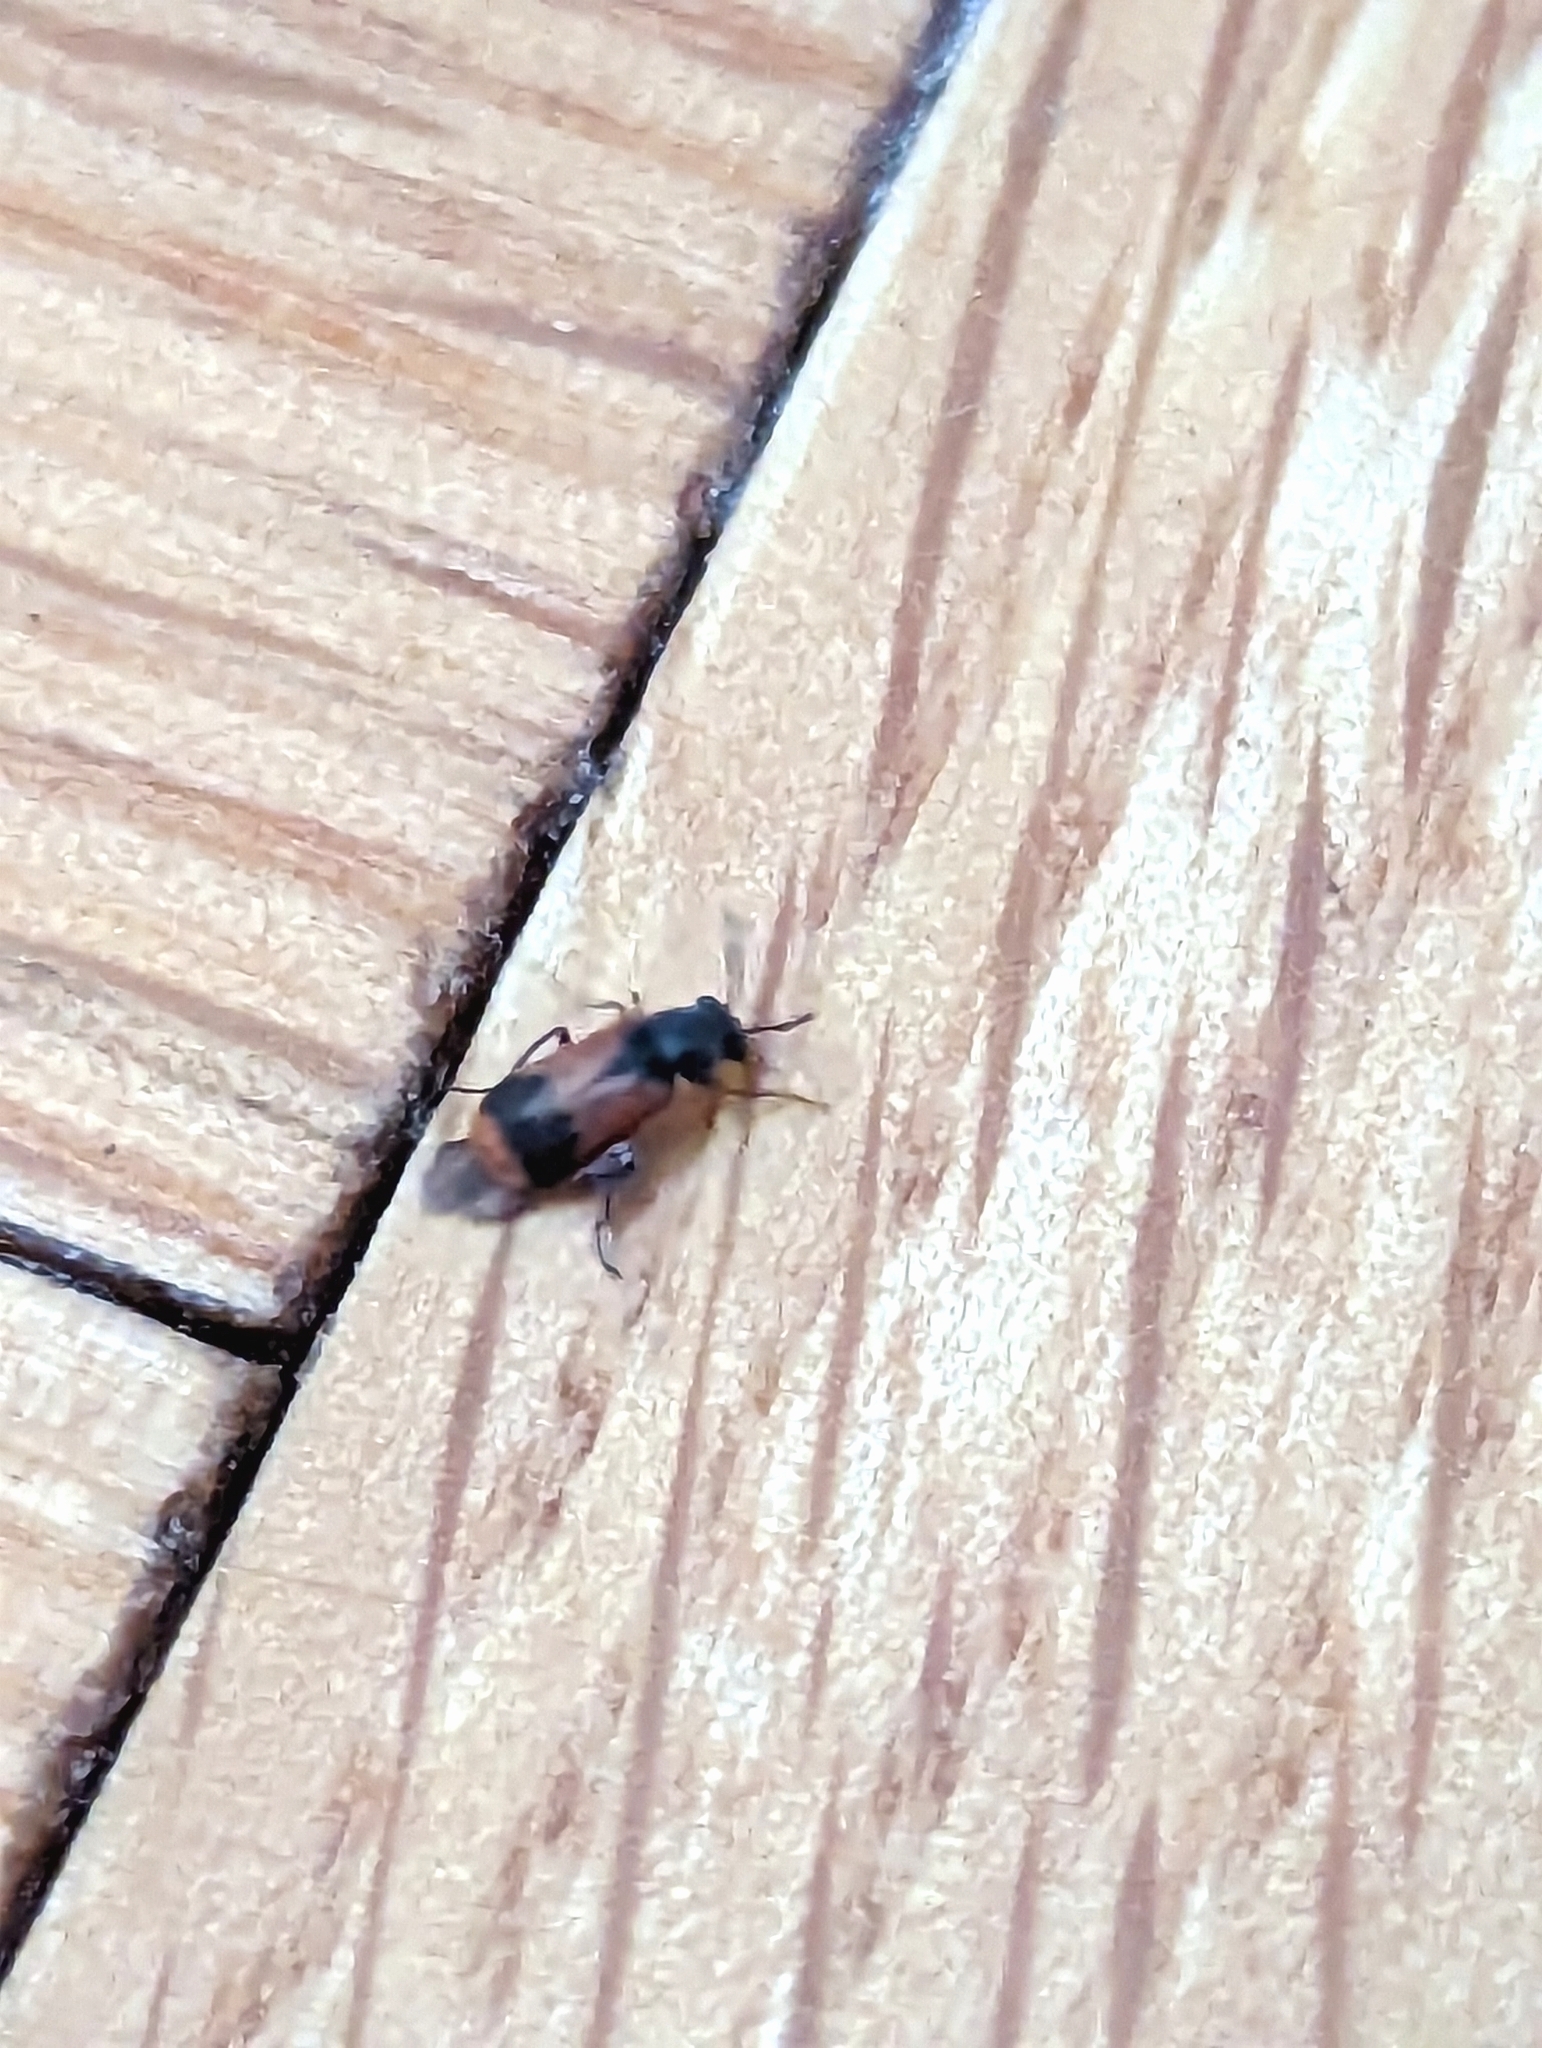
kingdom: Animalia
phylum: Arthropoda
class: Insecta
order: Coleoptera
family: Melyridae
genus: Anthocomus
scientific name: Anthocomus equestris
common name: Black-banded soft-winged flower beetle
